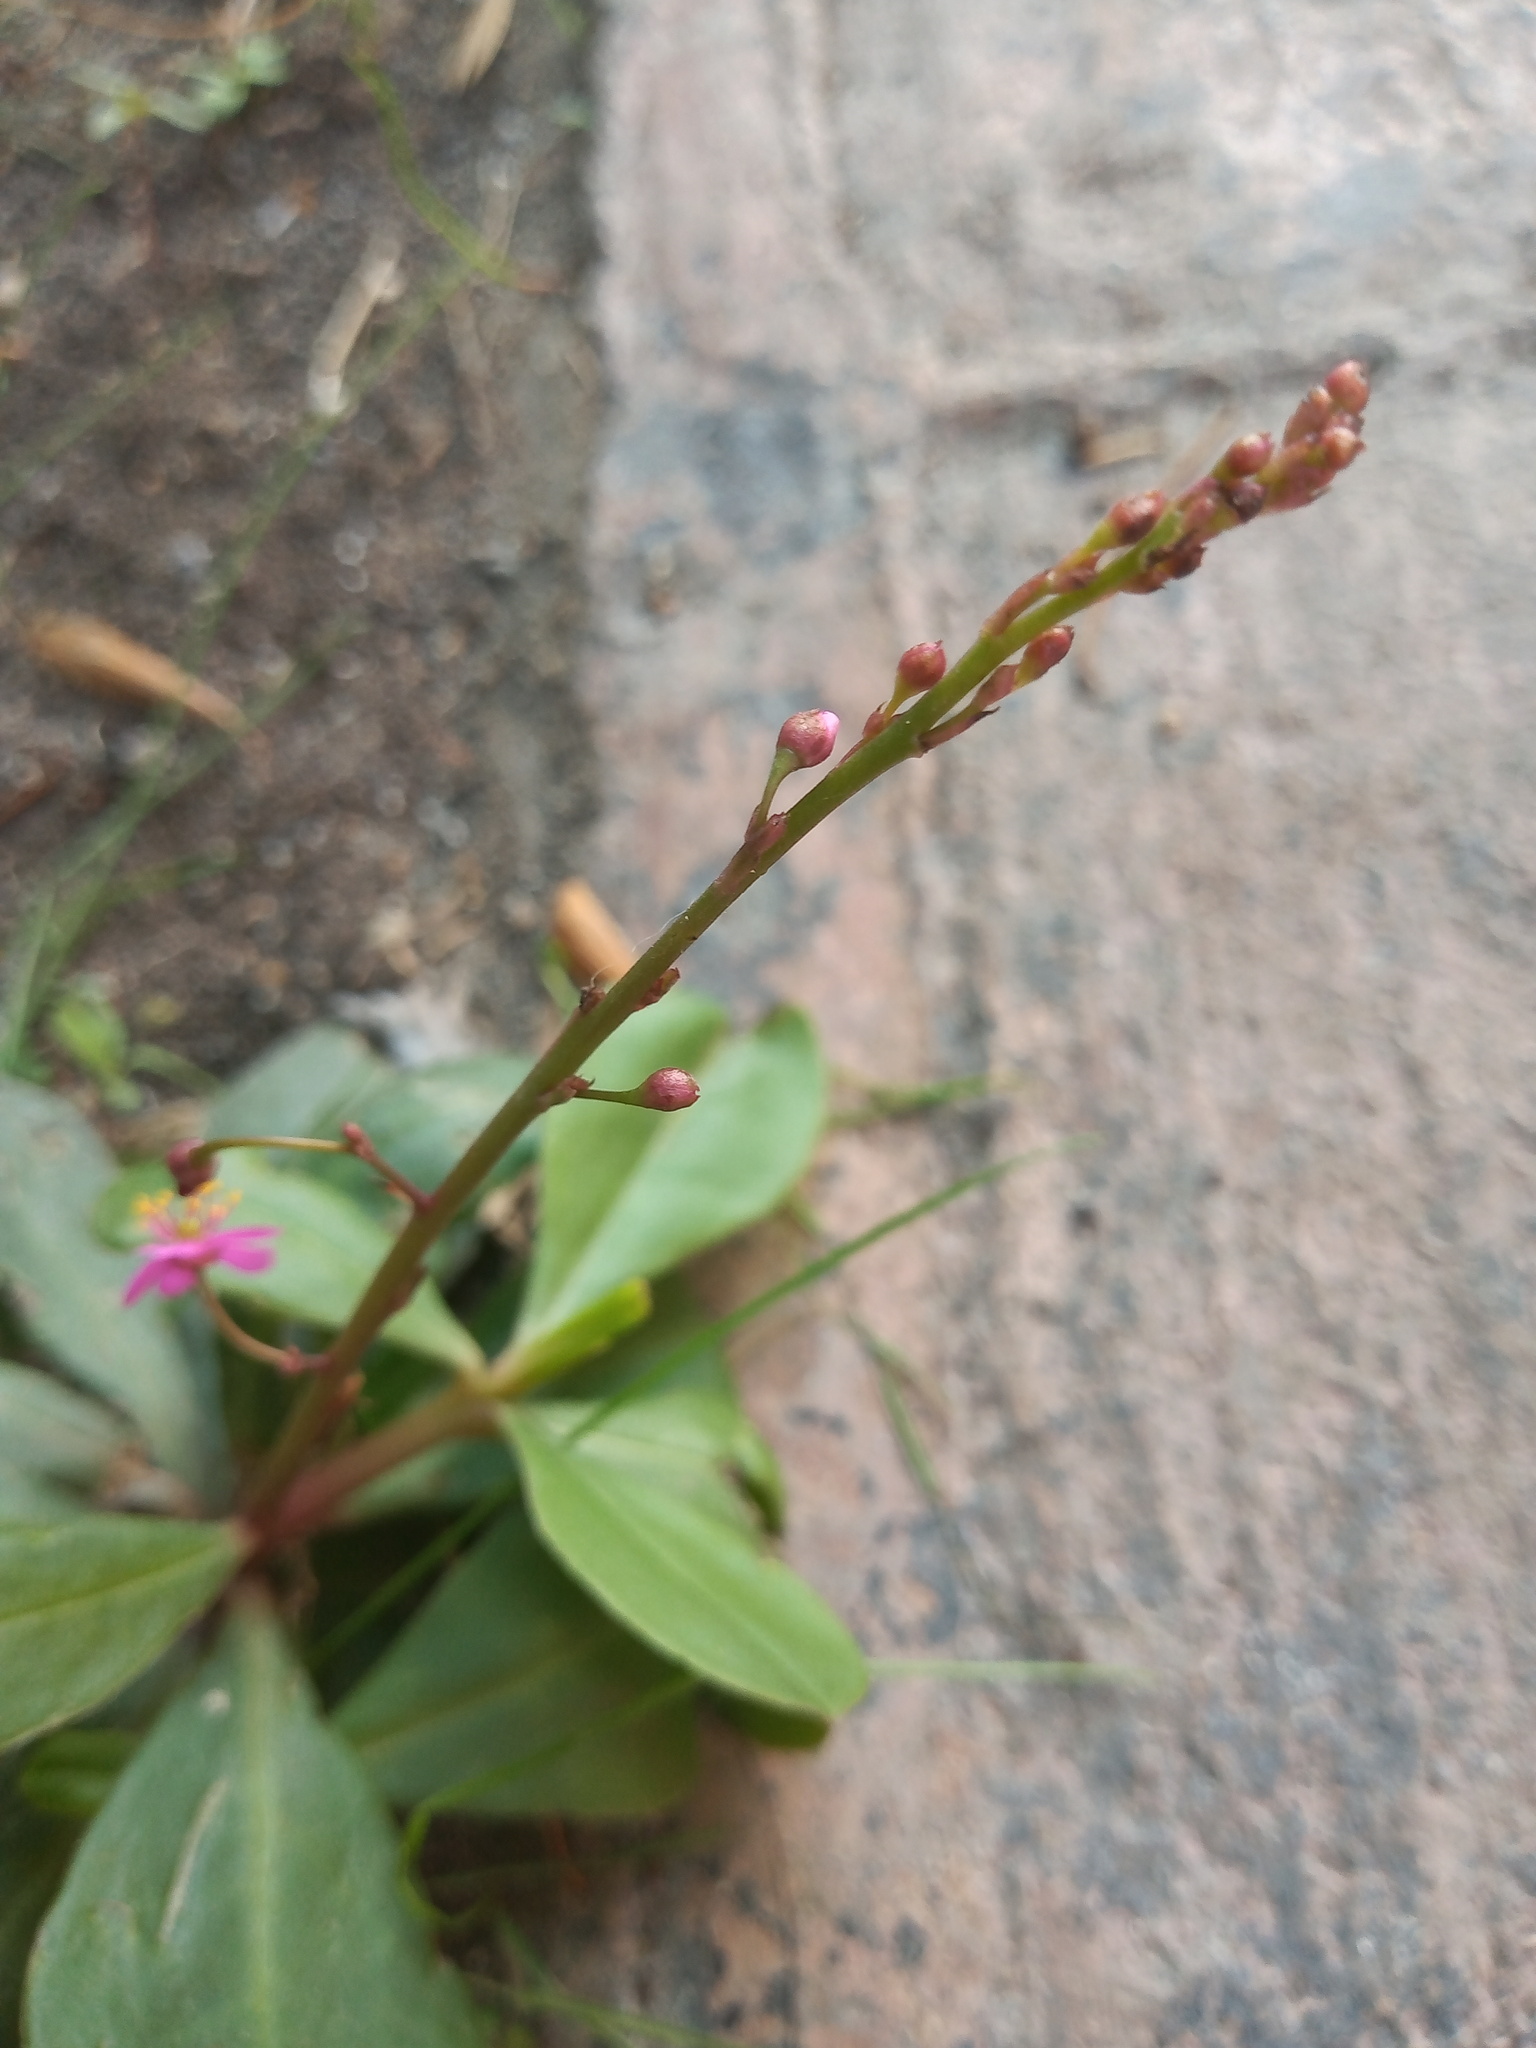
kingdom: Plantae
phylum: Tracheophyta
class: Magnoliopsida
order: Caryophyllales
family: Talinaceae
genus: Talinum
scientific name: Talinum paniculatum
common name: Jewels of opar
